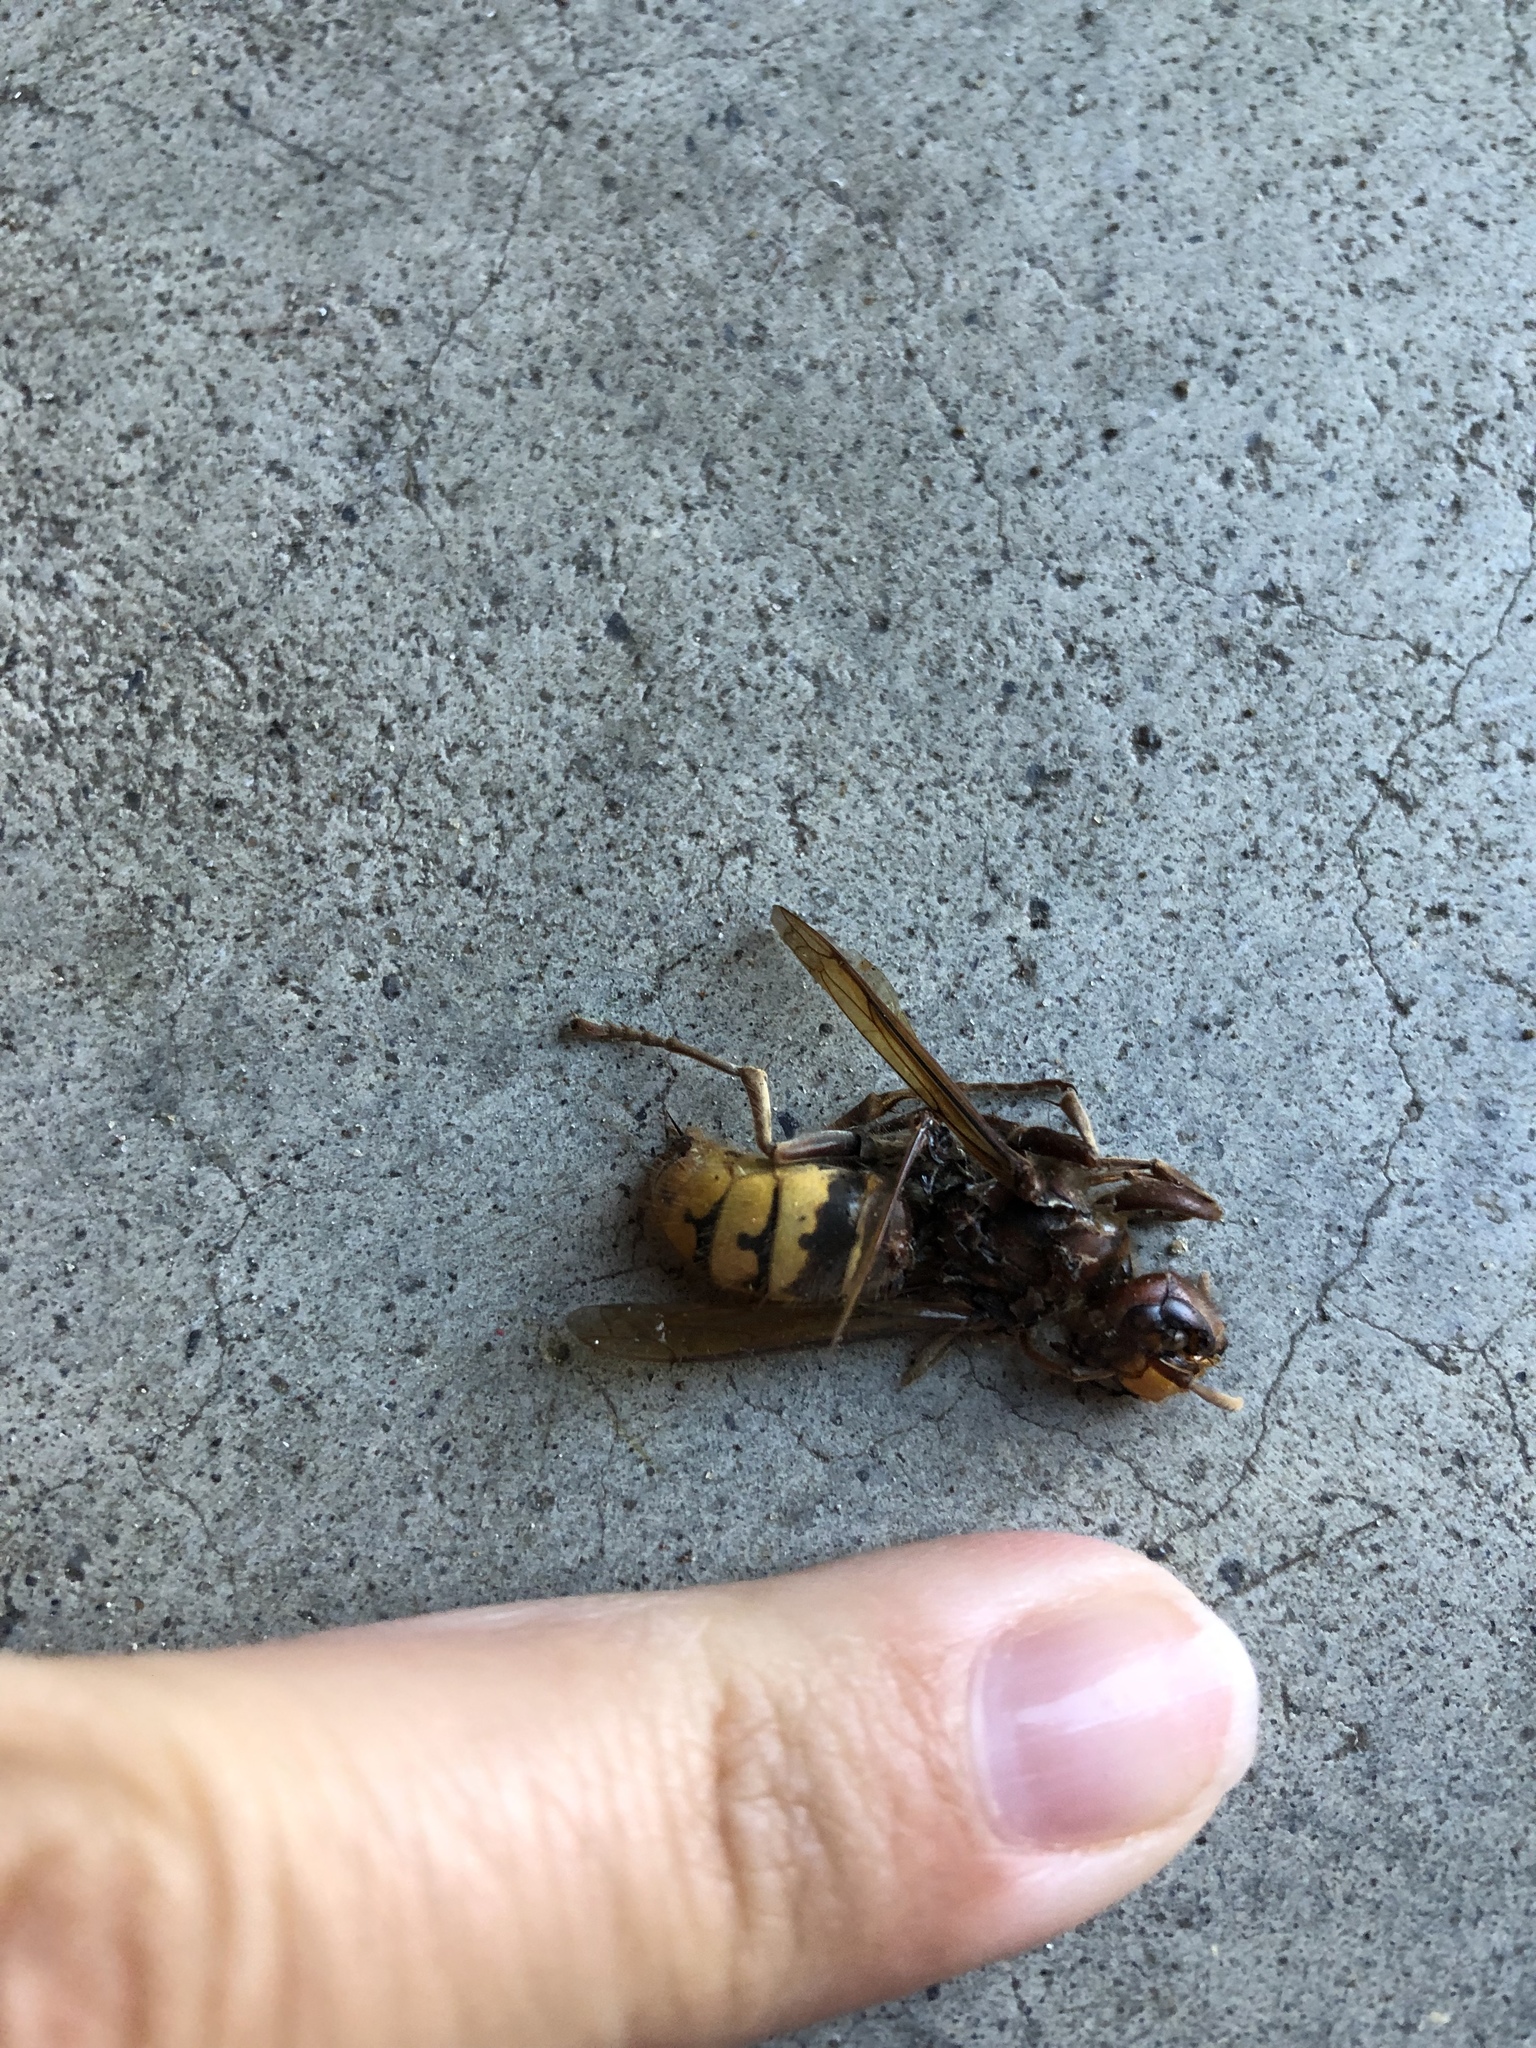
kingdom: Animalia
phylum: Arthropoda
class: Insecta
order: Hymenoptera
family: Vespidae
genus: Vespa
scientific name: Vespa crabro
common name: Hornet
